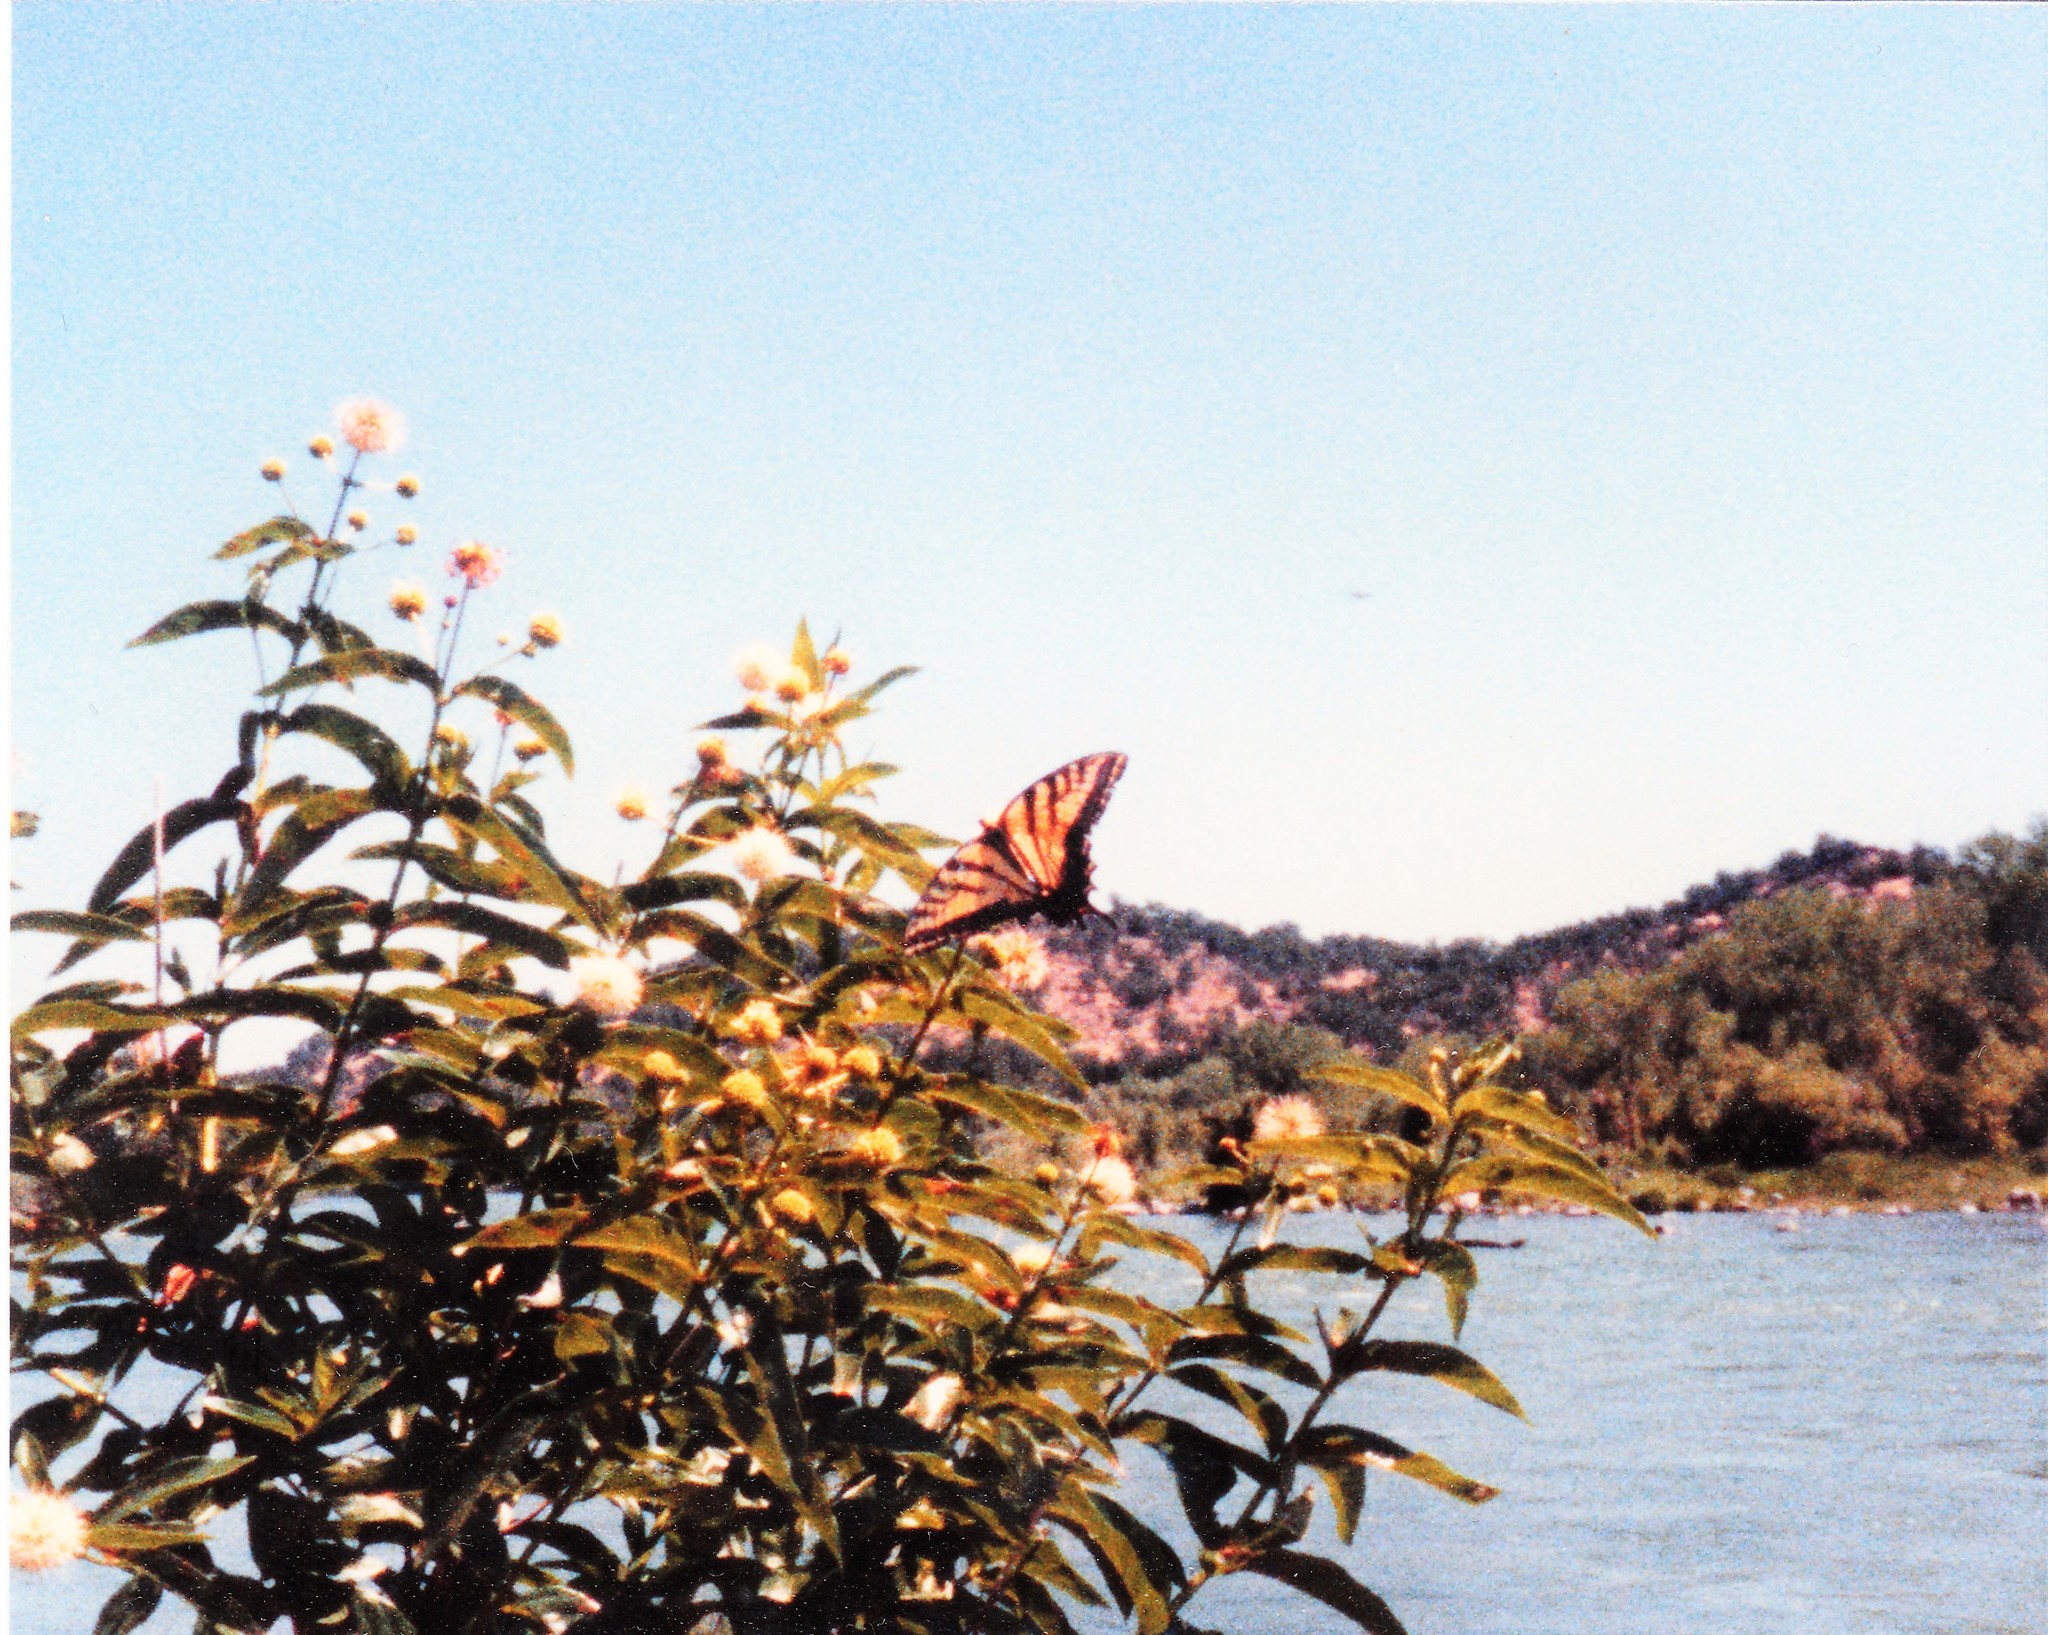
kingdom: Animalia
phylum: Arthropoda
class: Insecta
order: Lepidoptera
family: Papilionidae
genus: Papilio
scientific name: Papilio multicaudata
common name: Two-tailed tiger swallowtail
